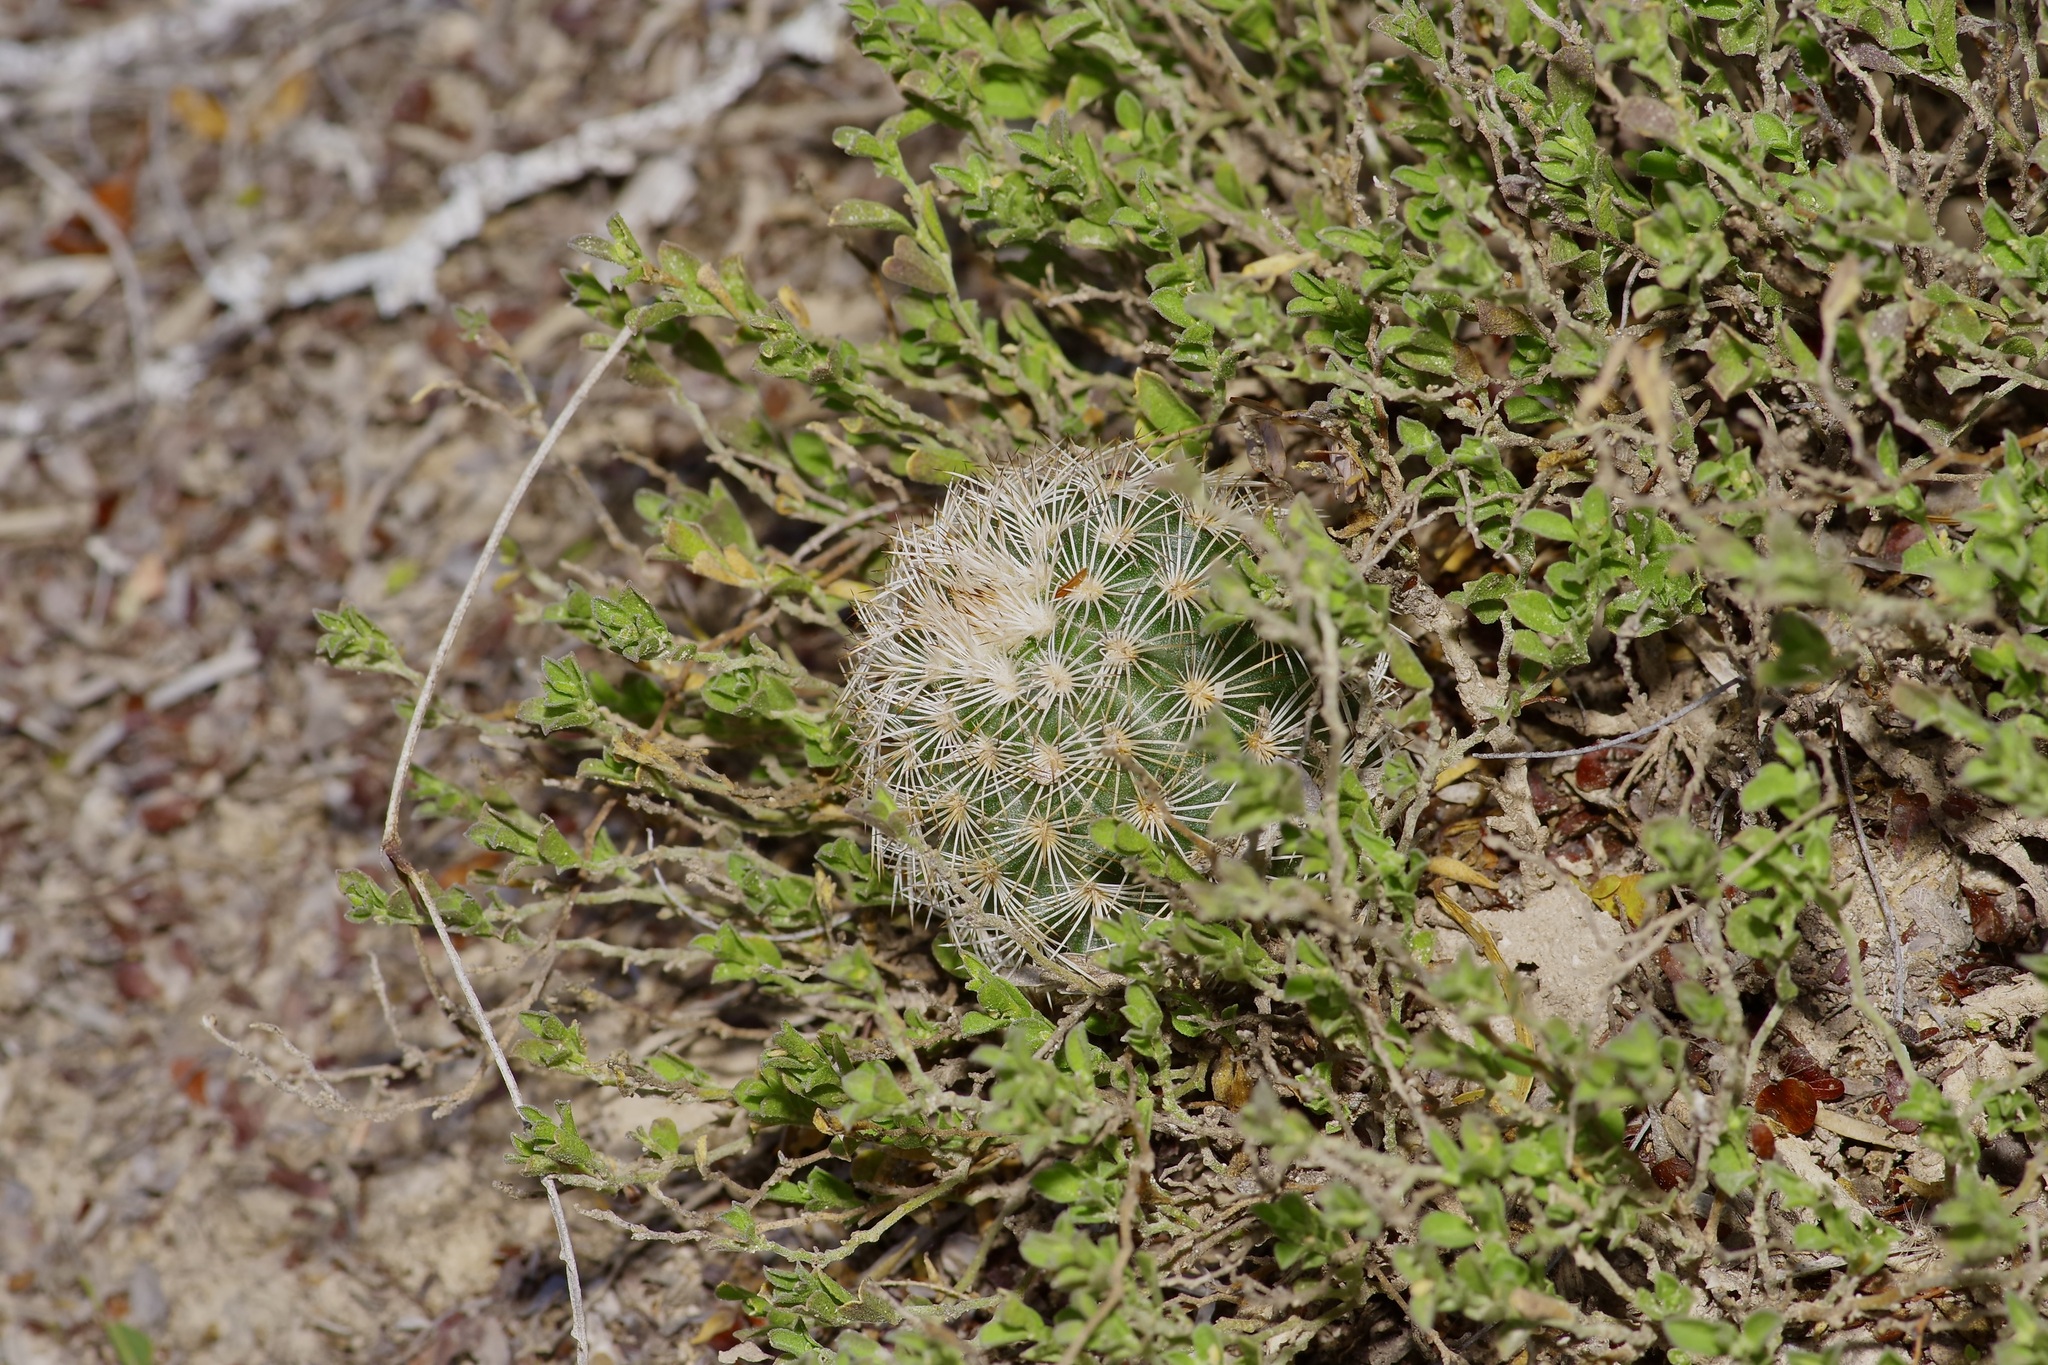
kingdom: Plantae
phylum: Tracheophyta
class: Magnoliopsida
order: Caryophyllales
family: Cactaceae
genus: Echinocereus
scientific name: Echinocereus reichenbachii
